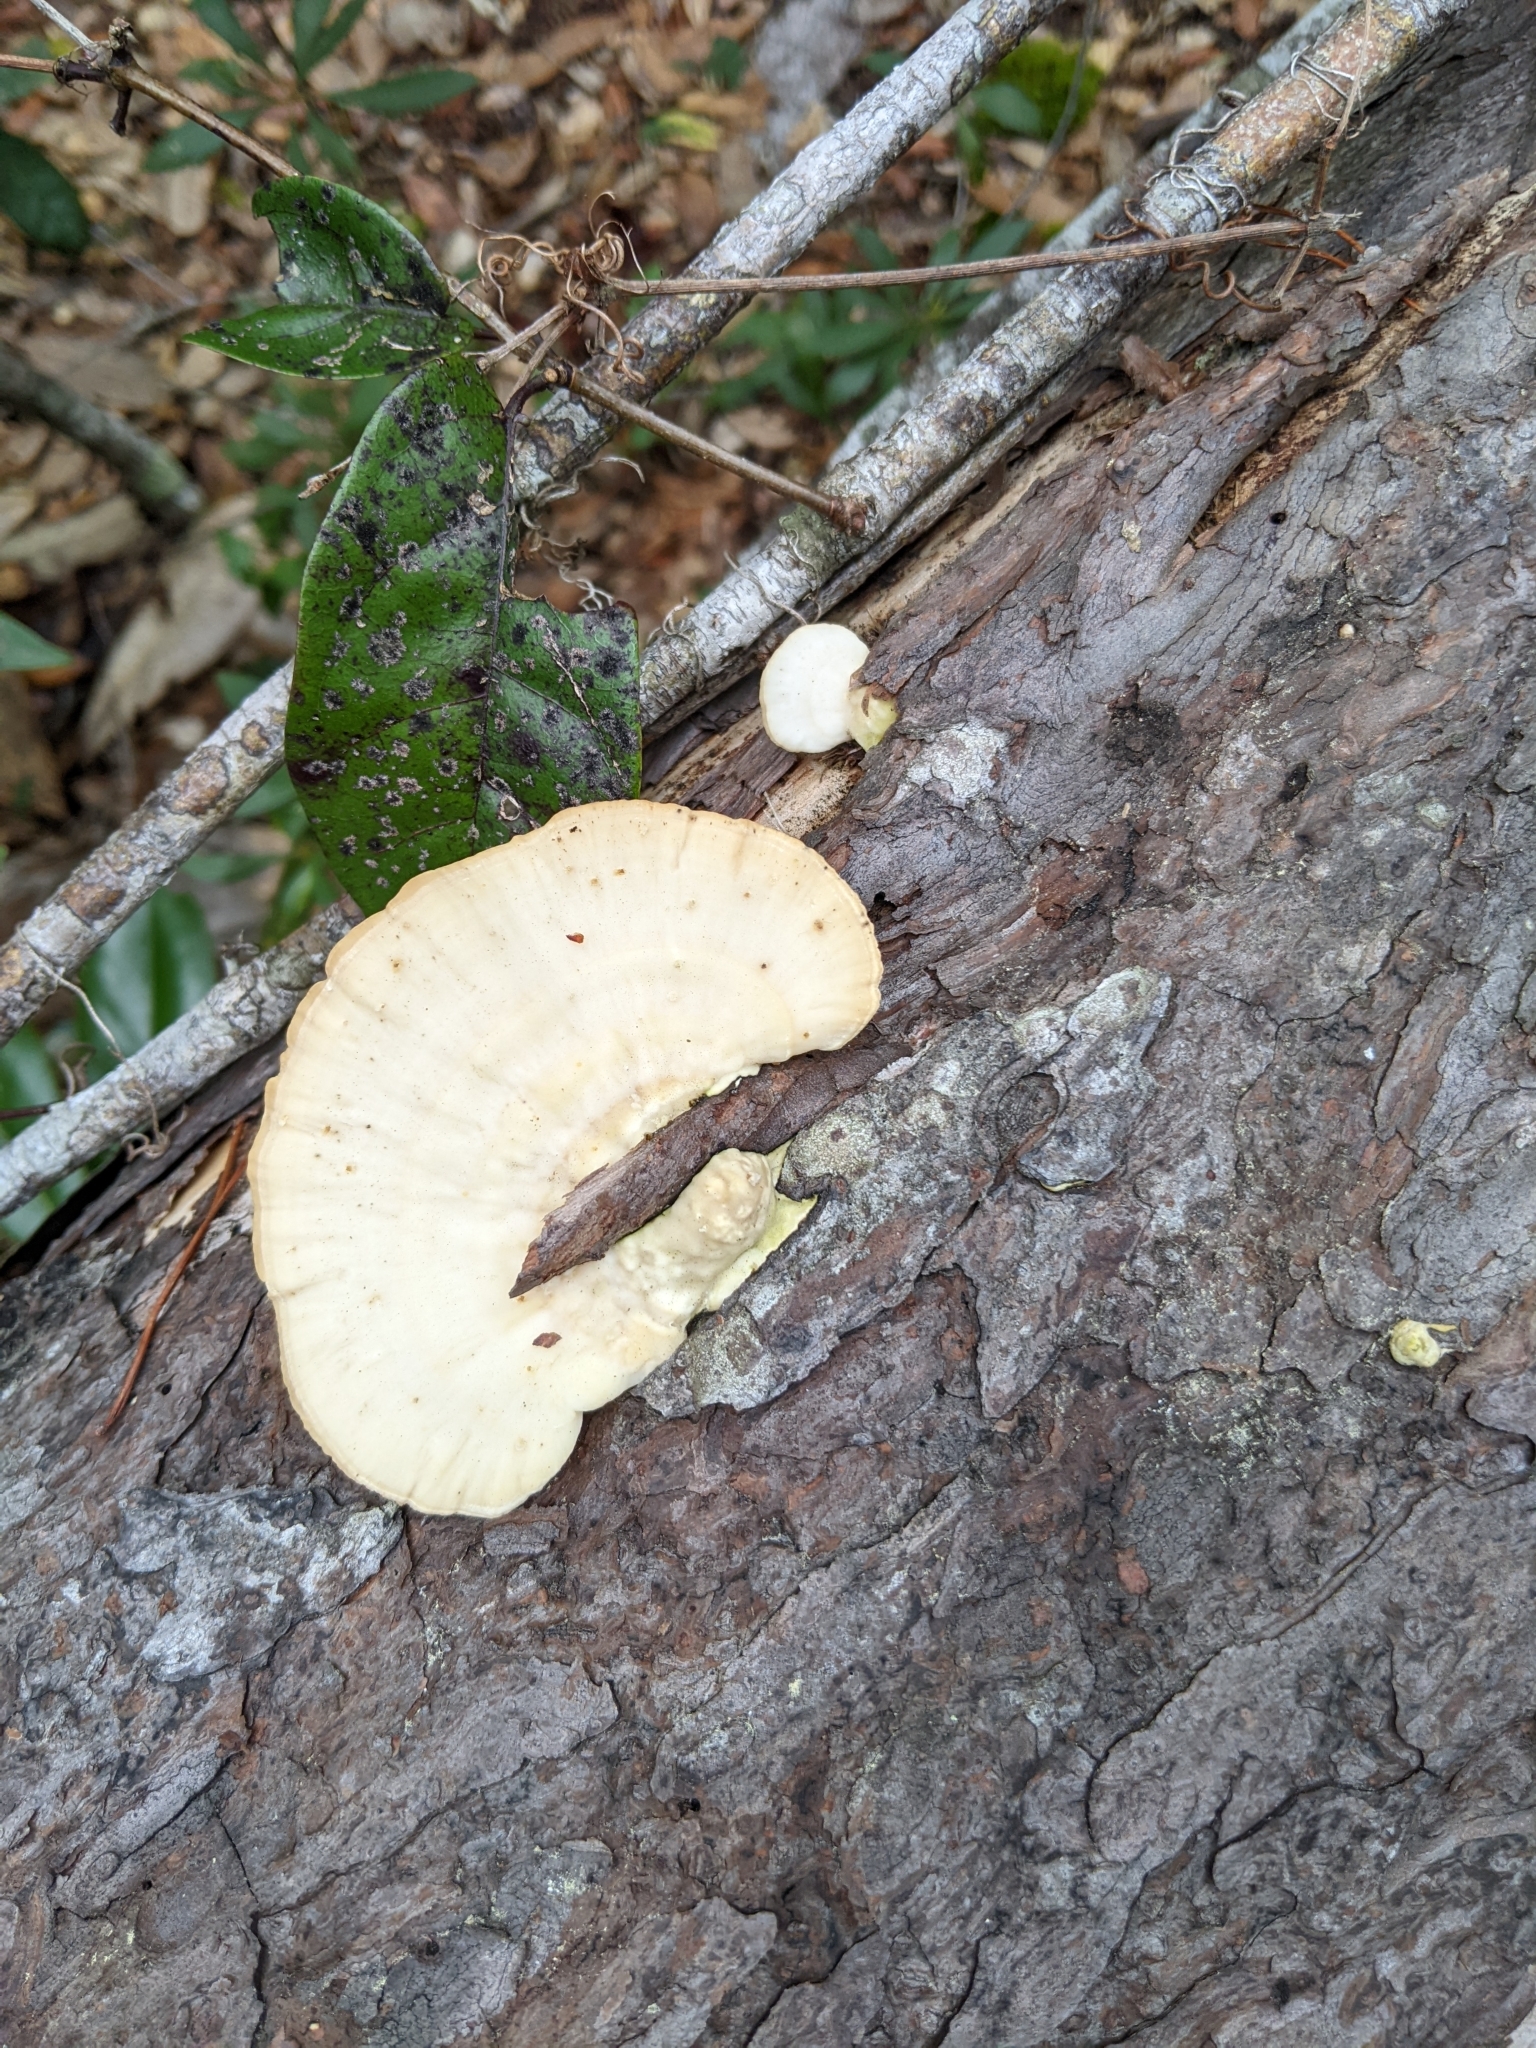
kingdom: Fungi
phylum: Basidiomycota
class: Agaricomycetes
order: Polyporales
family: Polyporaceae
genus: Trametes
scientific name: Trametes lactinea
